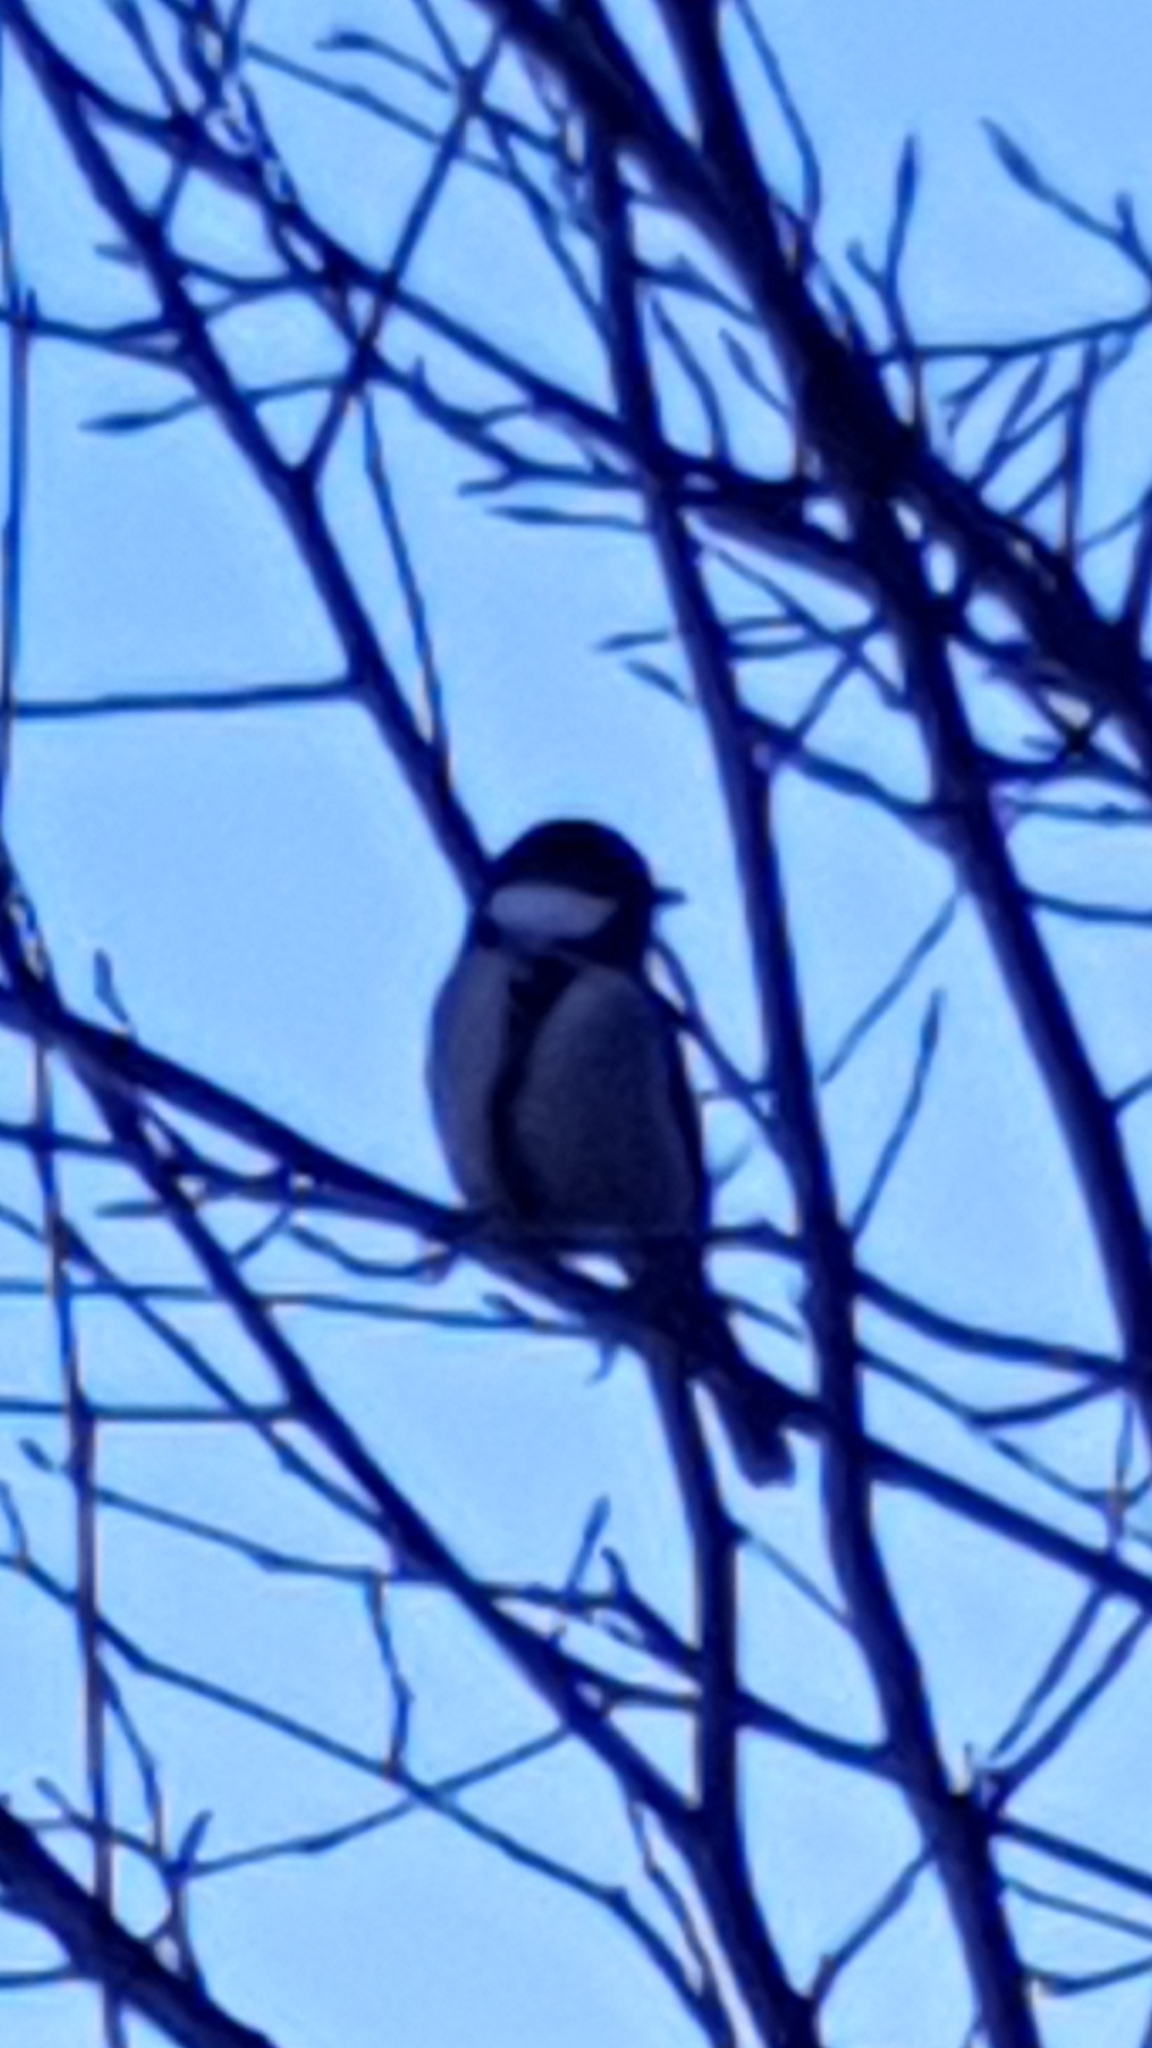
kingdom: Animalia
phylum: Chordata
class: Aves
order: Passeriformes
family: Paridae
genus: Parus
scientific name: Parus major
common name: Great tit
